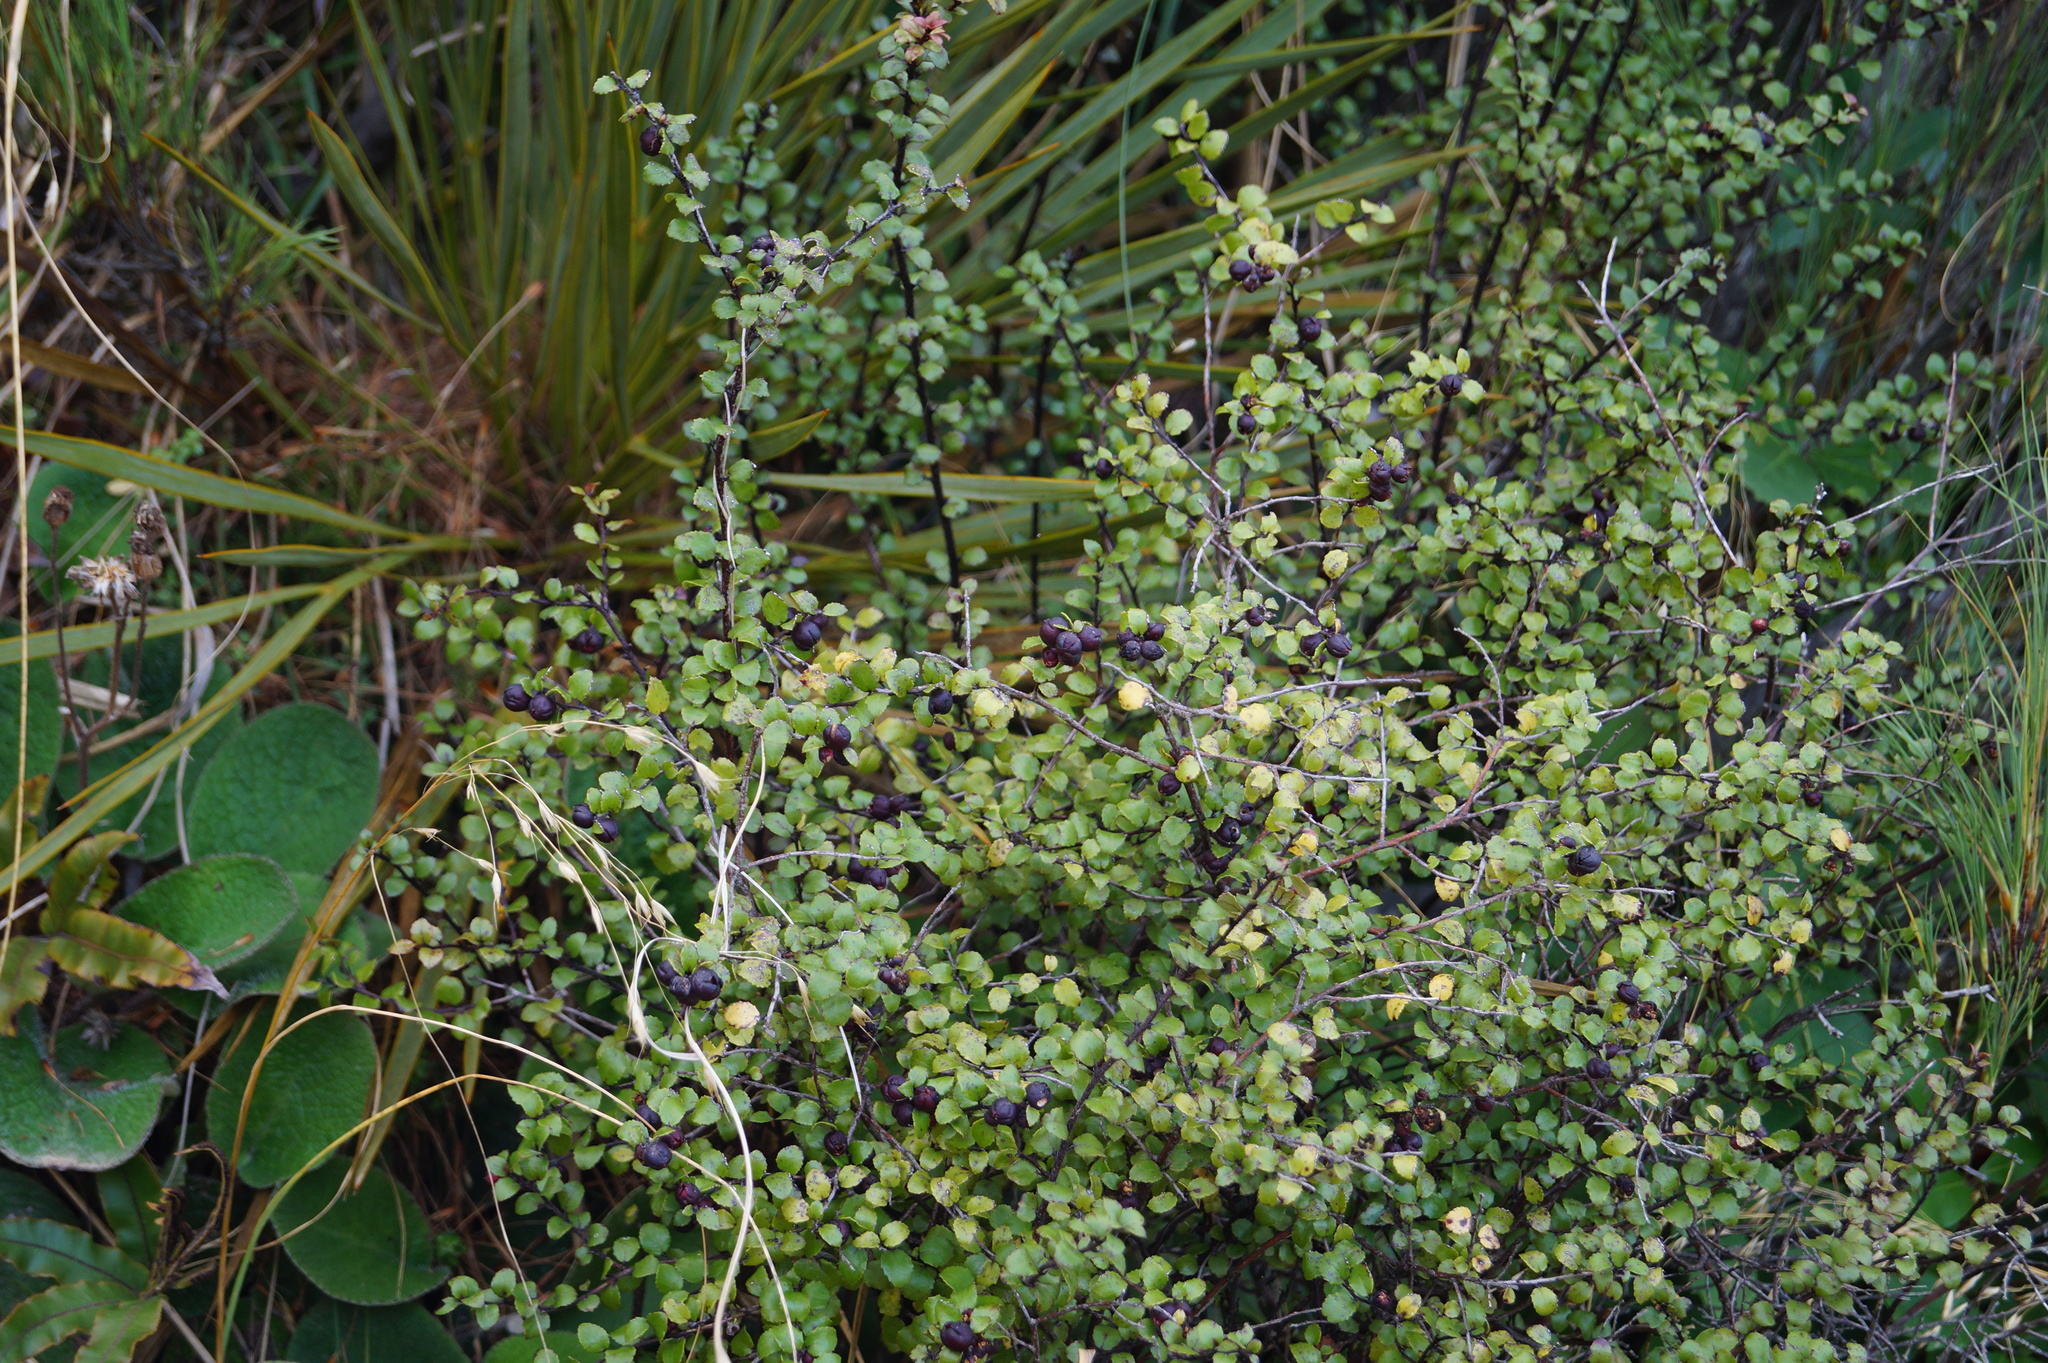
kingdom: Plantae
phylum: Tracheophyta
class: Magnoliopsida
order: Ericales
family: Ericaceae
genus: Gaultheria
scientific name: Gaultheria antipoda
